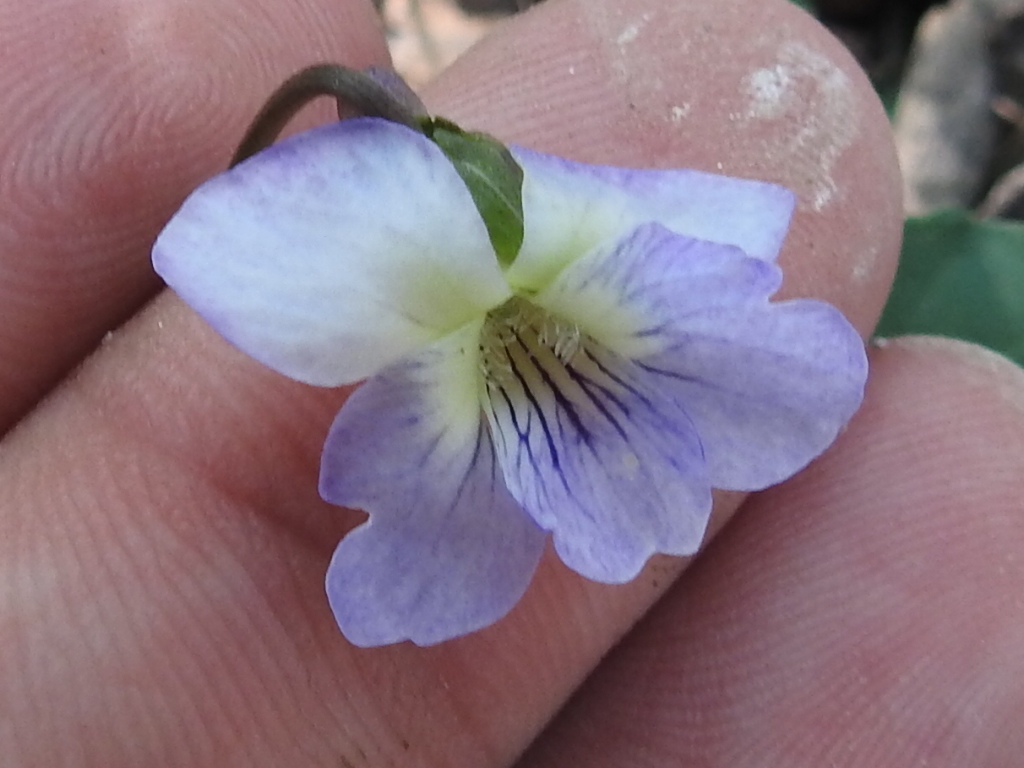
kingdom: Plantae
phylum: Tracheophyta
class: Magnoliopsida
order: Malpighiales
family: Violaceae
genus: Viola
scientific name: Viola sororia
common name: Dooryard violet
